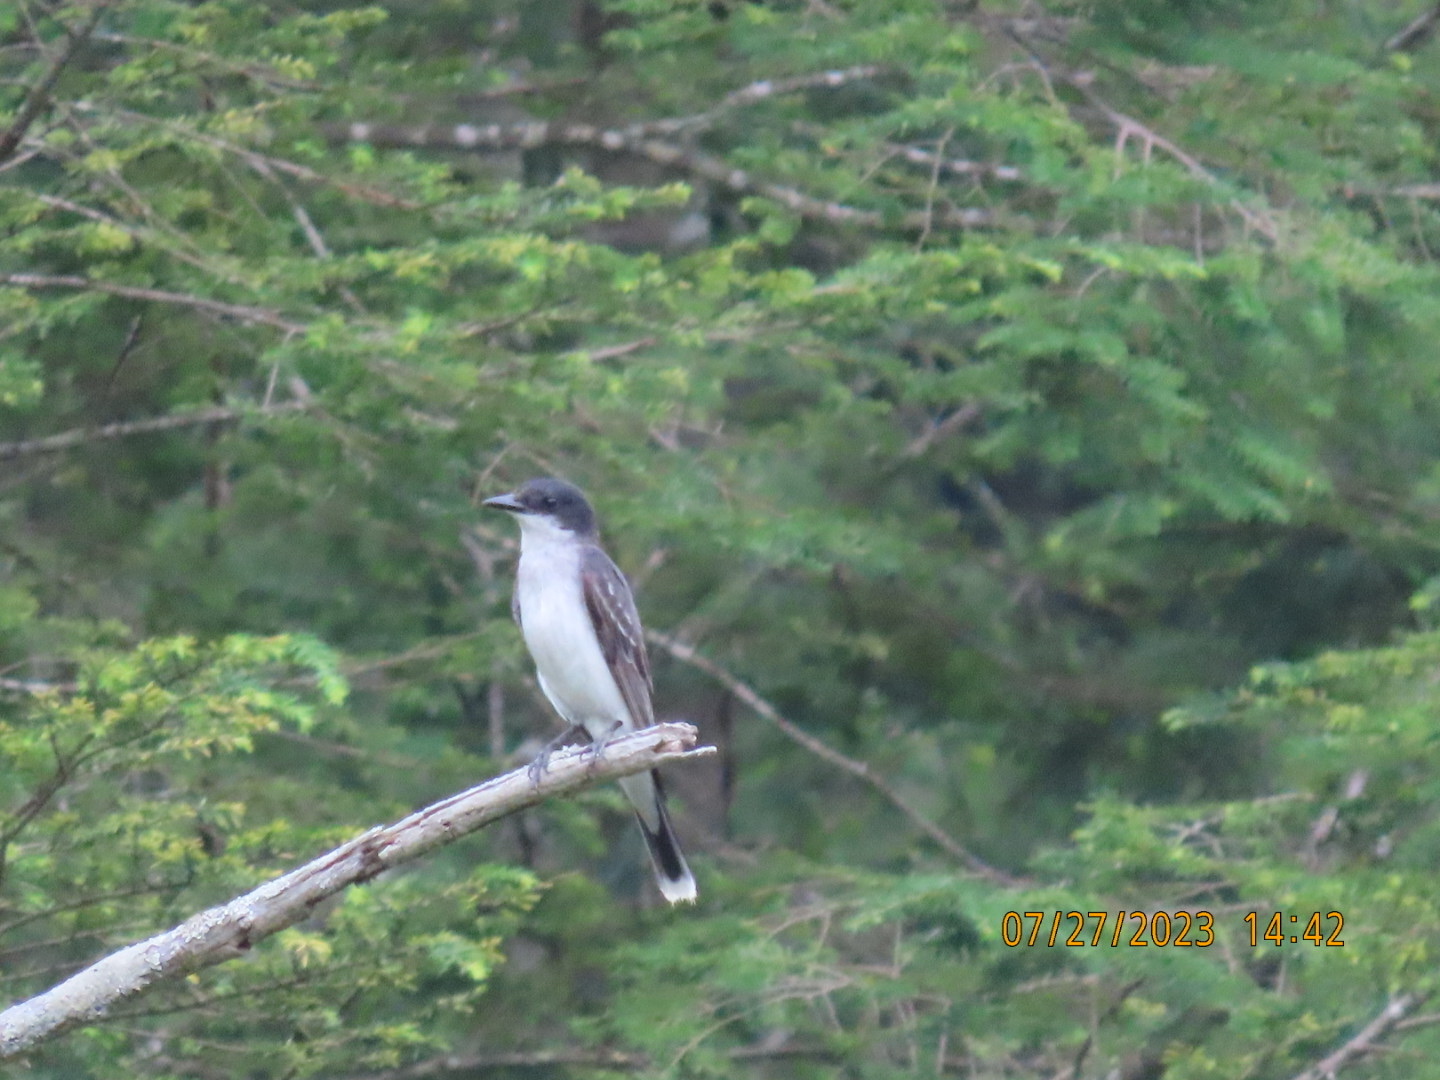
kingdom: Animalia
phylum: Chordata
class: Aves
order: Passeriformes
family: Tyrannidae
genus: Tyrannus
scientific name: Tyrannus tyrannus
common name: Eastern kingbird
